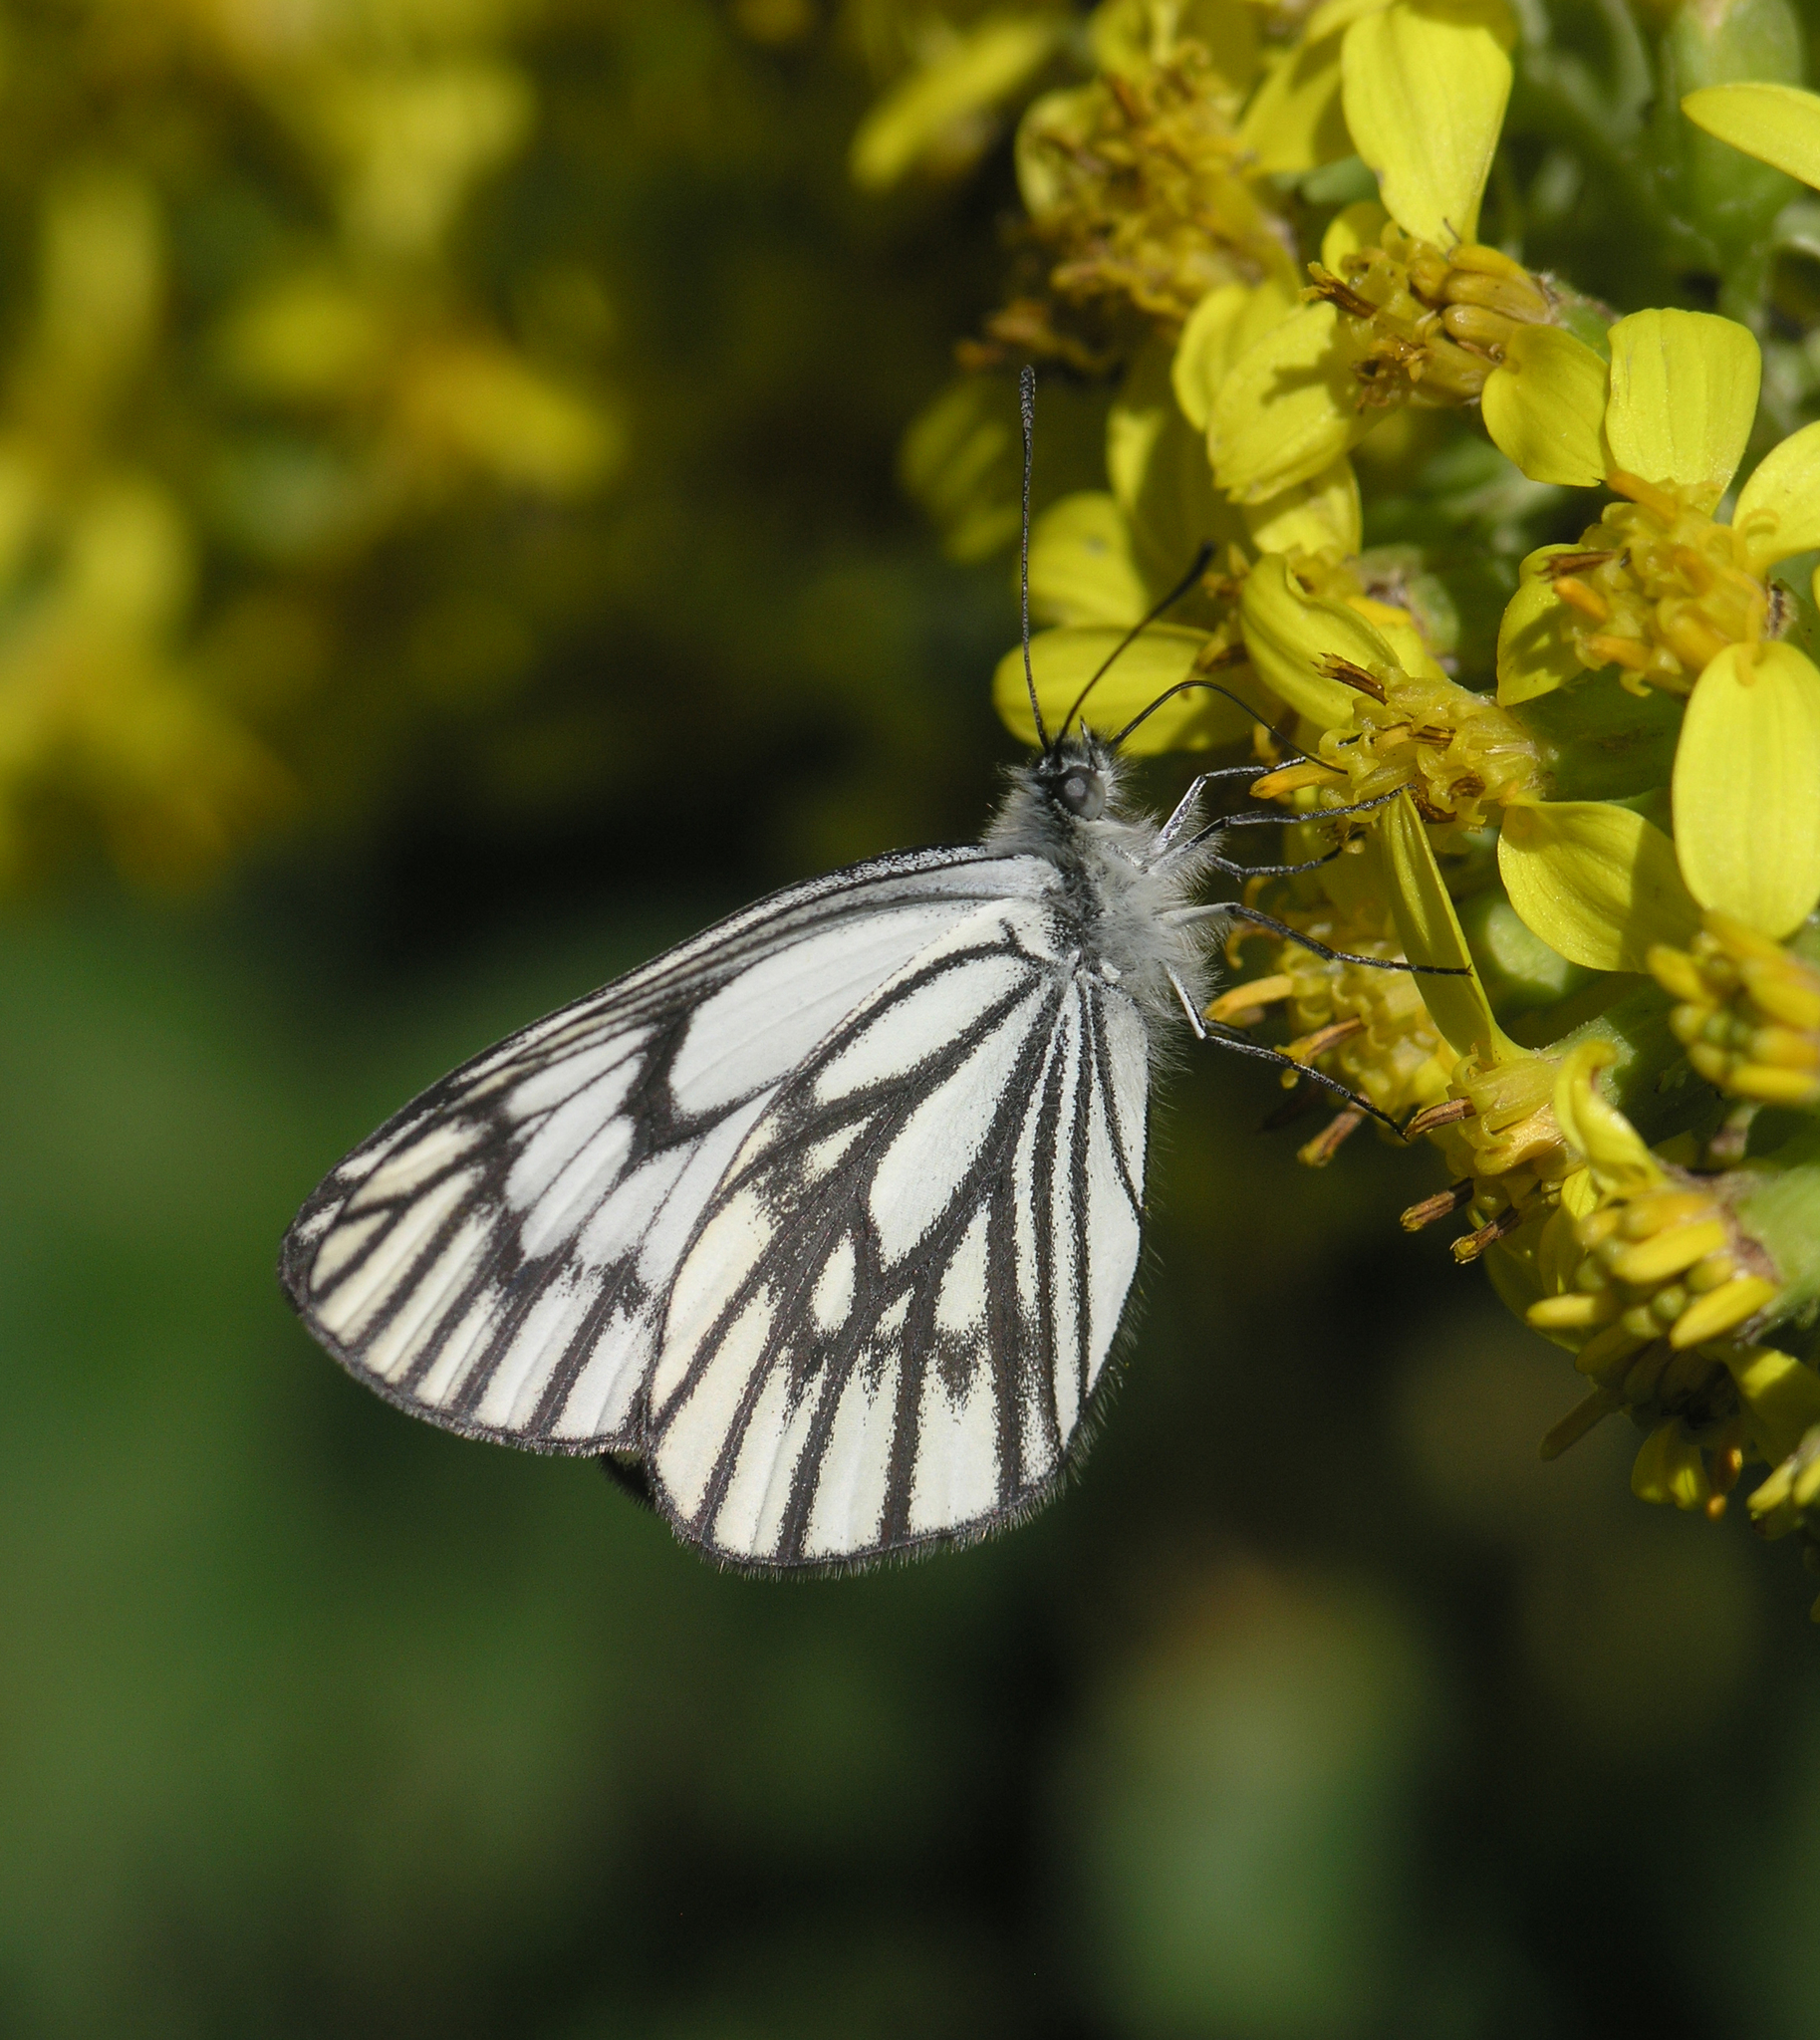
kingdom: Plantae
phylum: Tracheophyta
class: Magnoliopsida
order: Asterales
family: Asteraceae
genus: Ligularia
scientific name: Ligularia heterophylla
